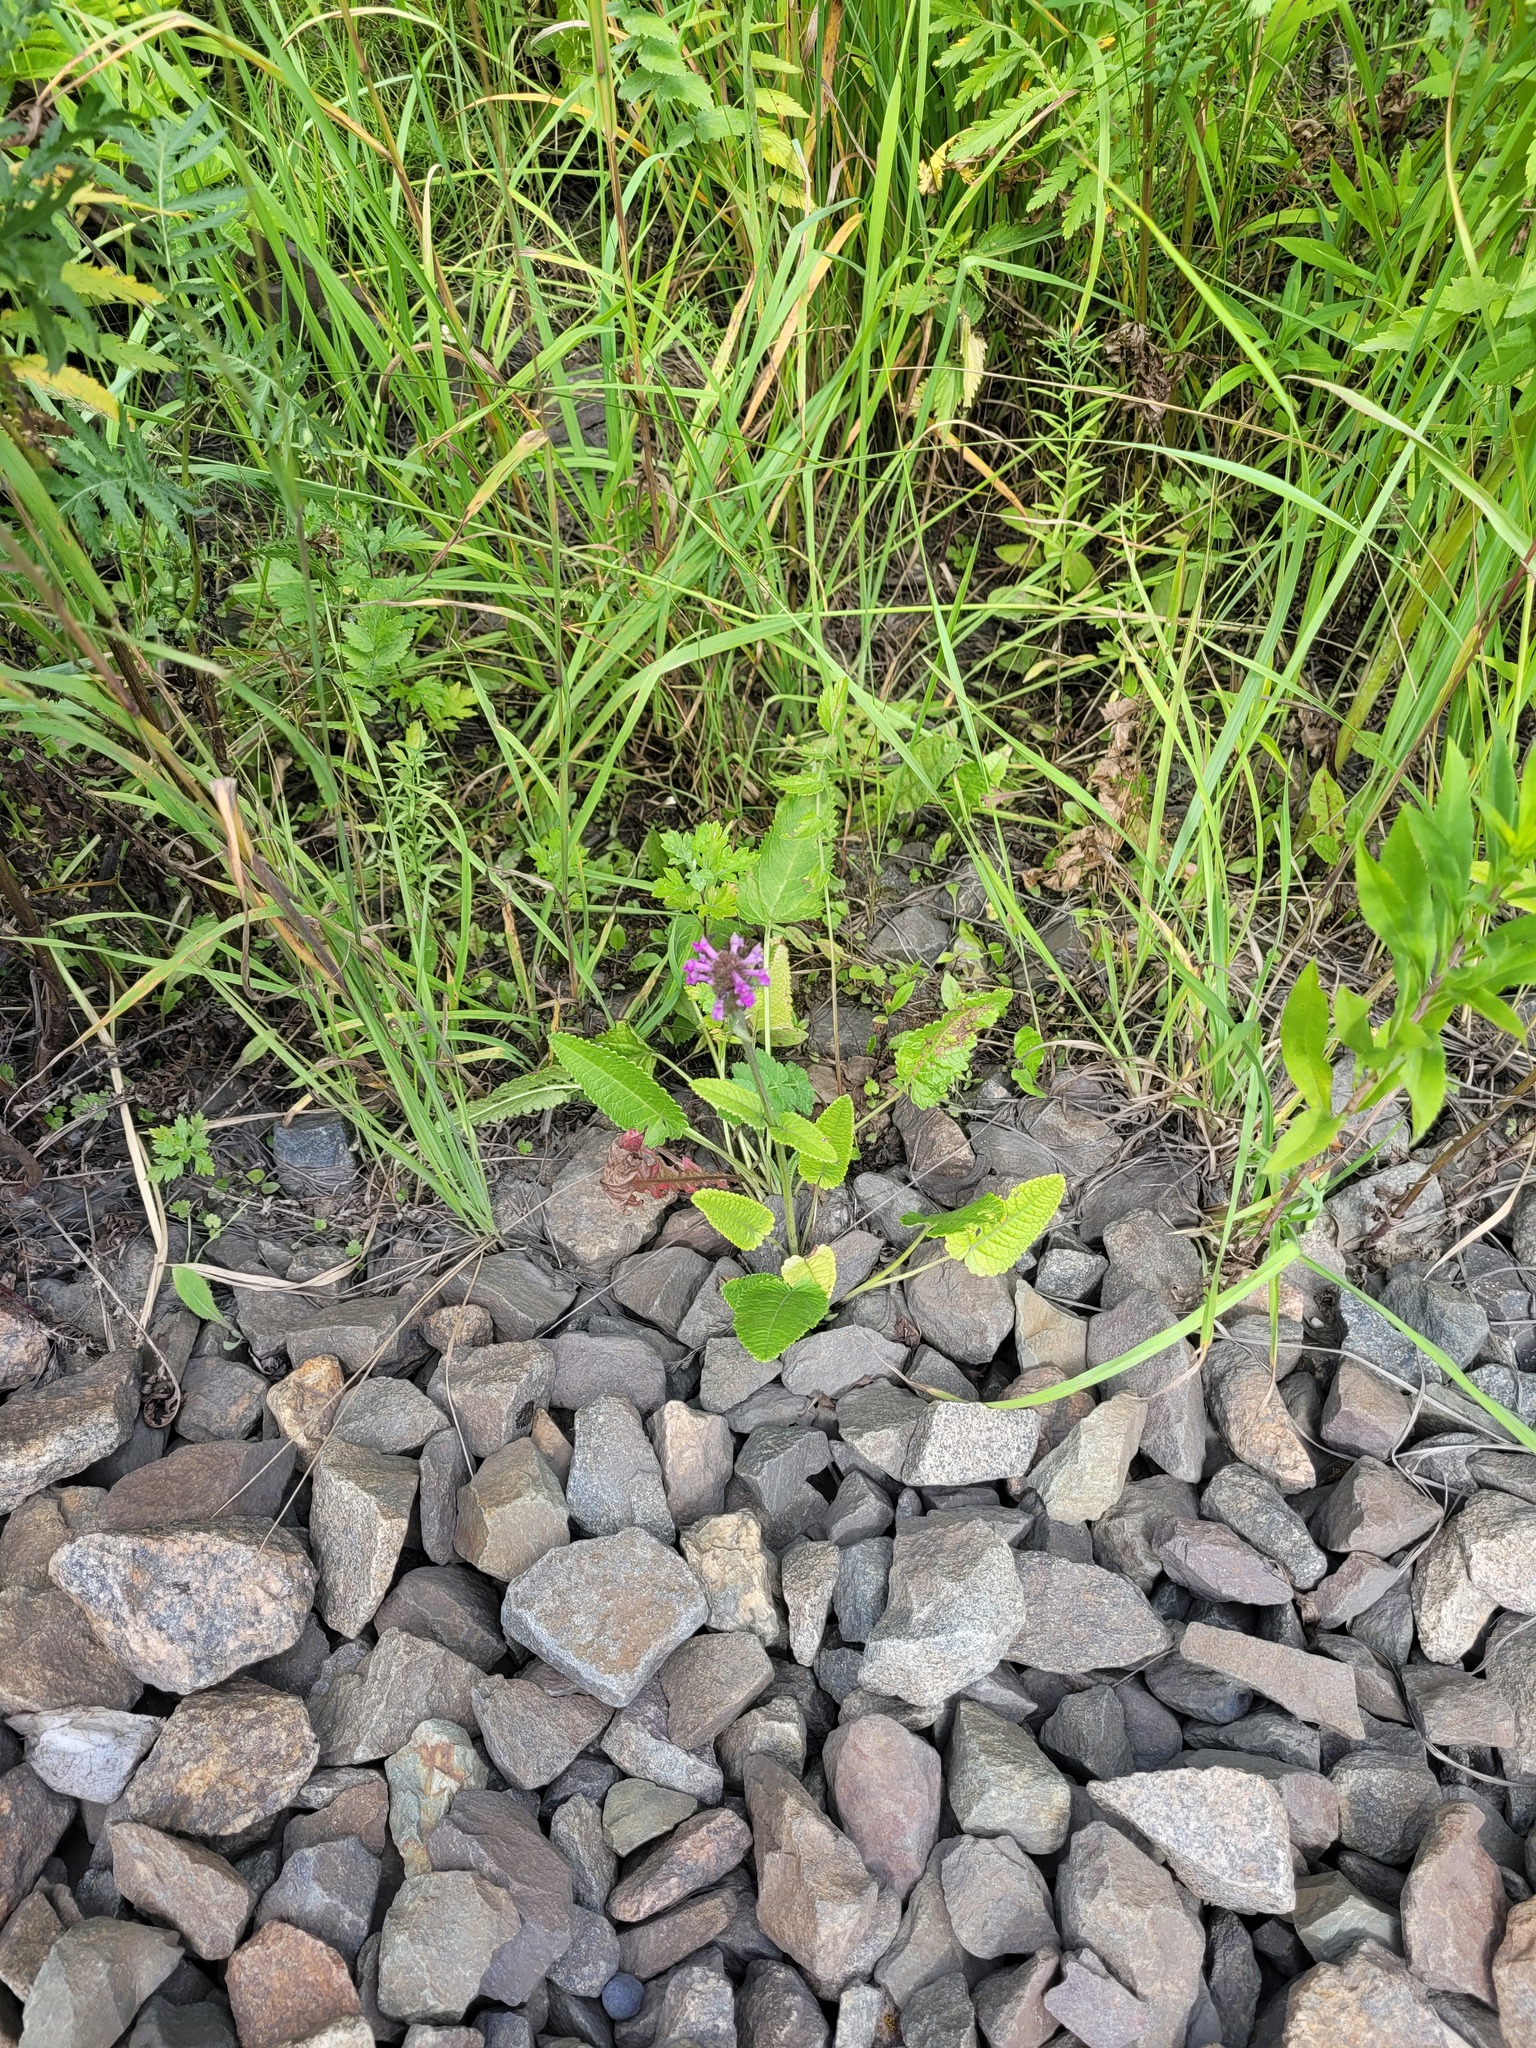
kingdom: Plantae
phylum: Tracheophyta
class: Magnoliopsida
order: Lamiales
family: Lamiaceae
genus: Betonica
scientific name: Betonica officinalis
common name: Bishop's-wort
